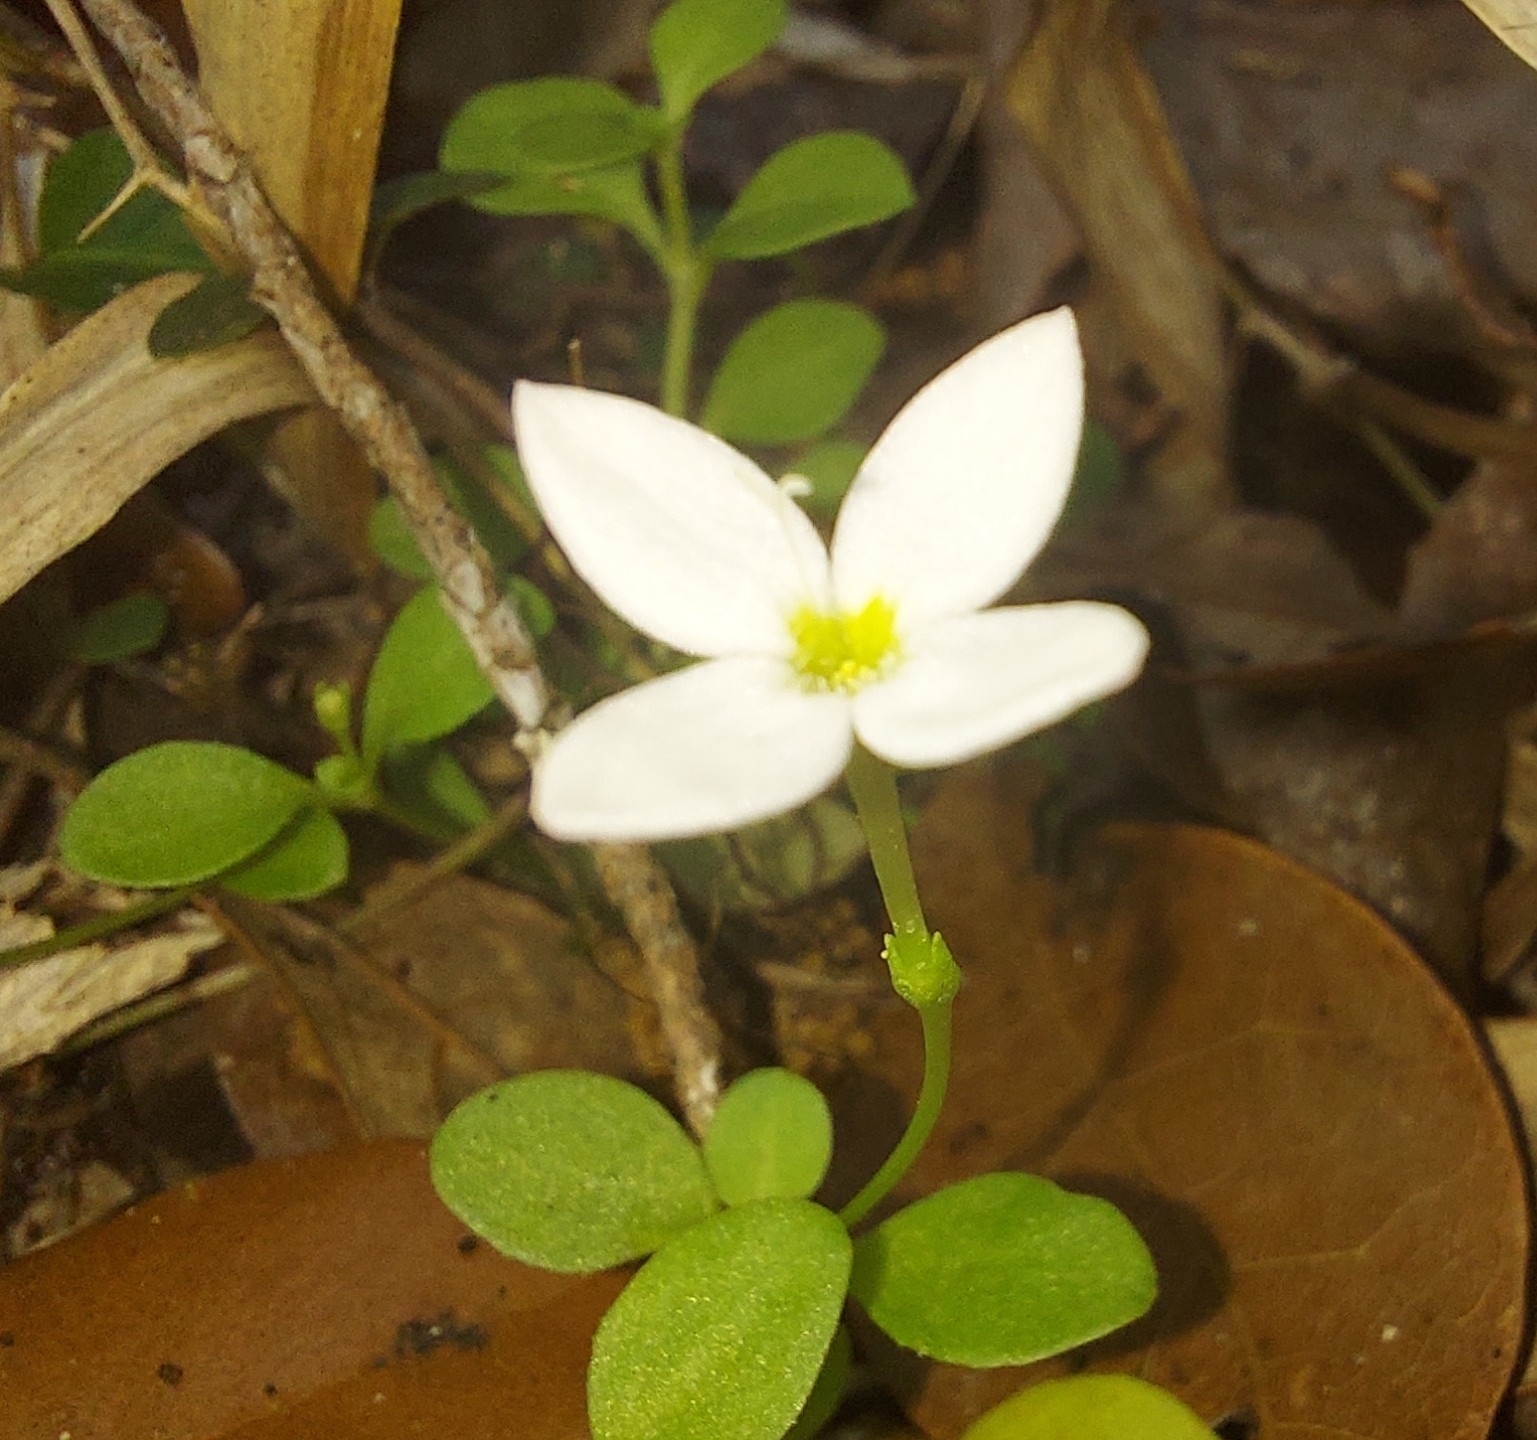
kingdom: Plantae
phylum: Tracheophyta
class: Magnoliopsida
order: Gentianales
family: Rubiaceae
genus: Houstonia
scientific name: Houstonia procumbens
